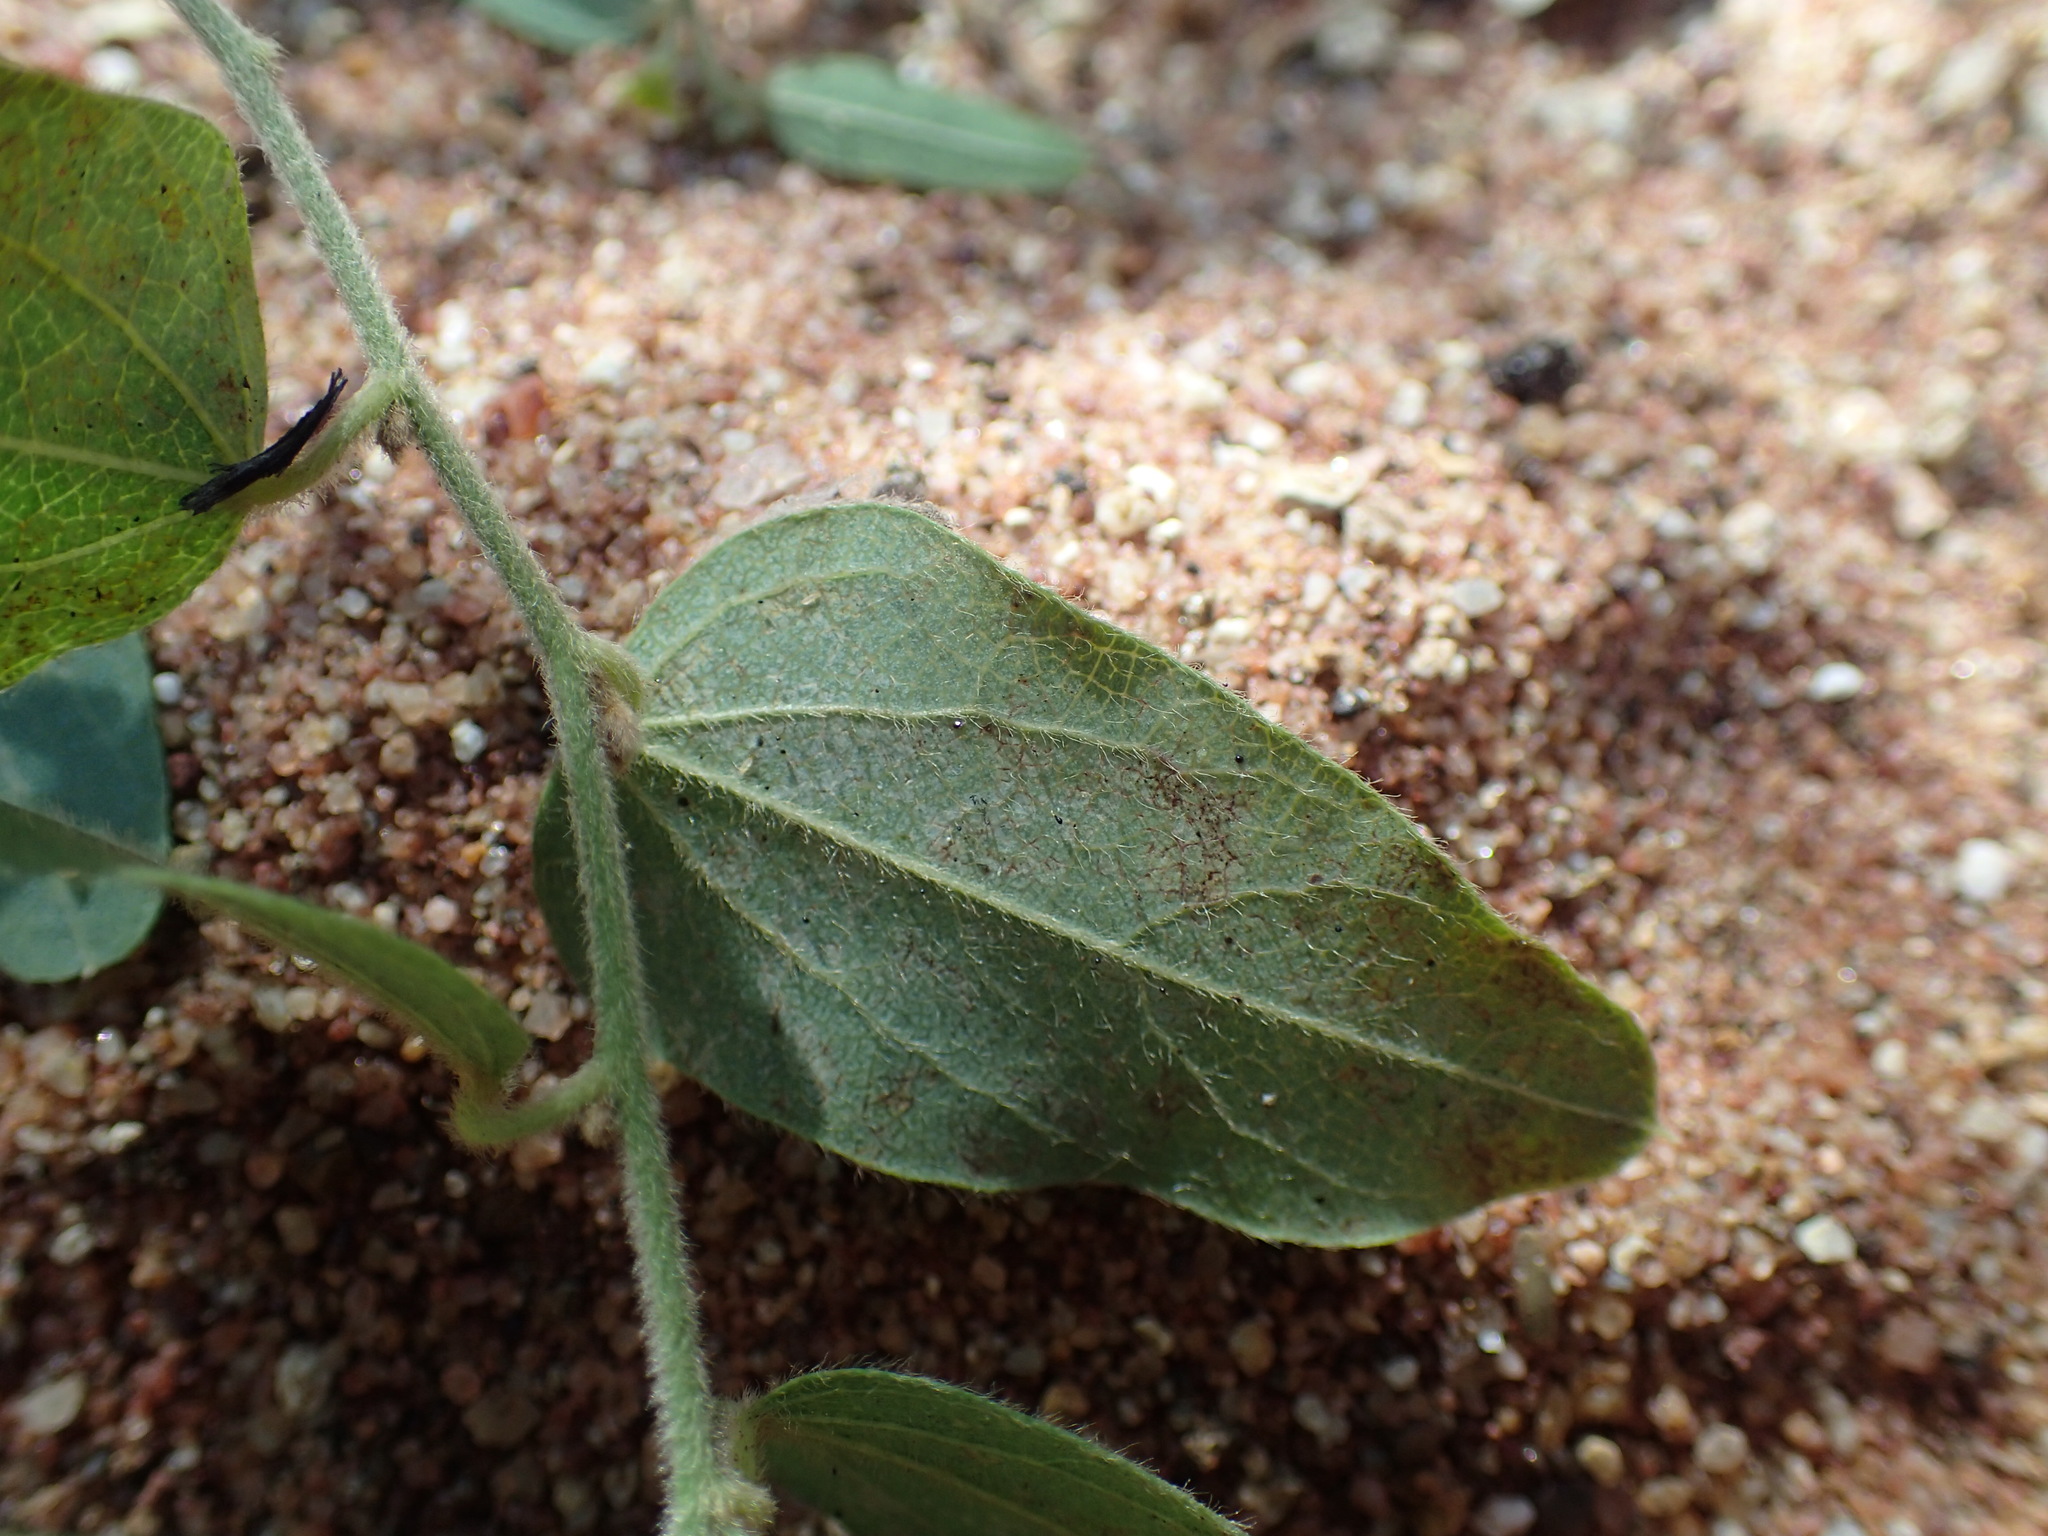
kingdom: Plantae
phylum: Tracheophyta
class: Magnoliopsida
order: Ranunculales
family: Menispermaceae
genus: Cocculus
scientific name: Cocculus hirsutus
